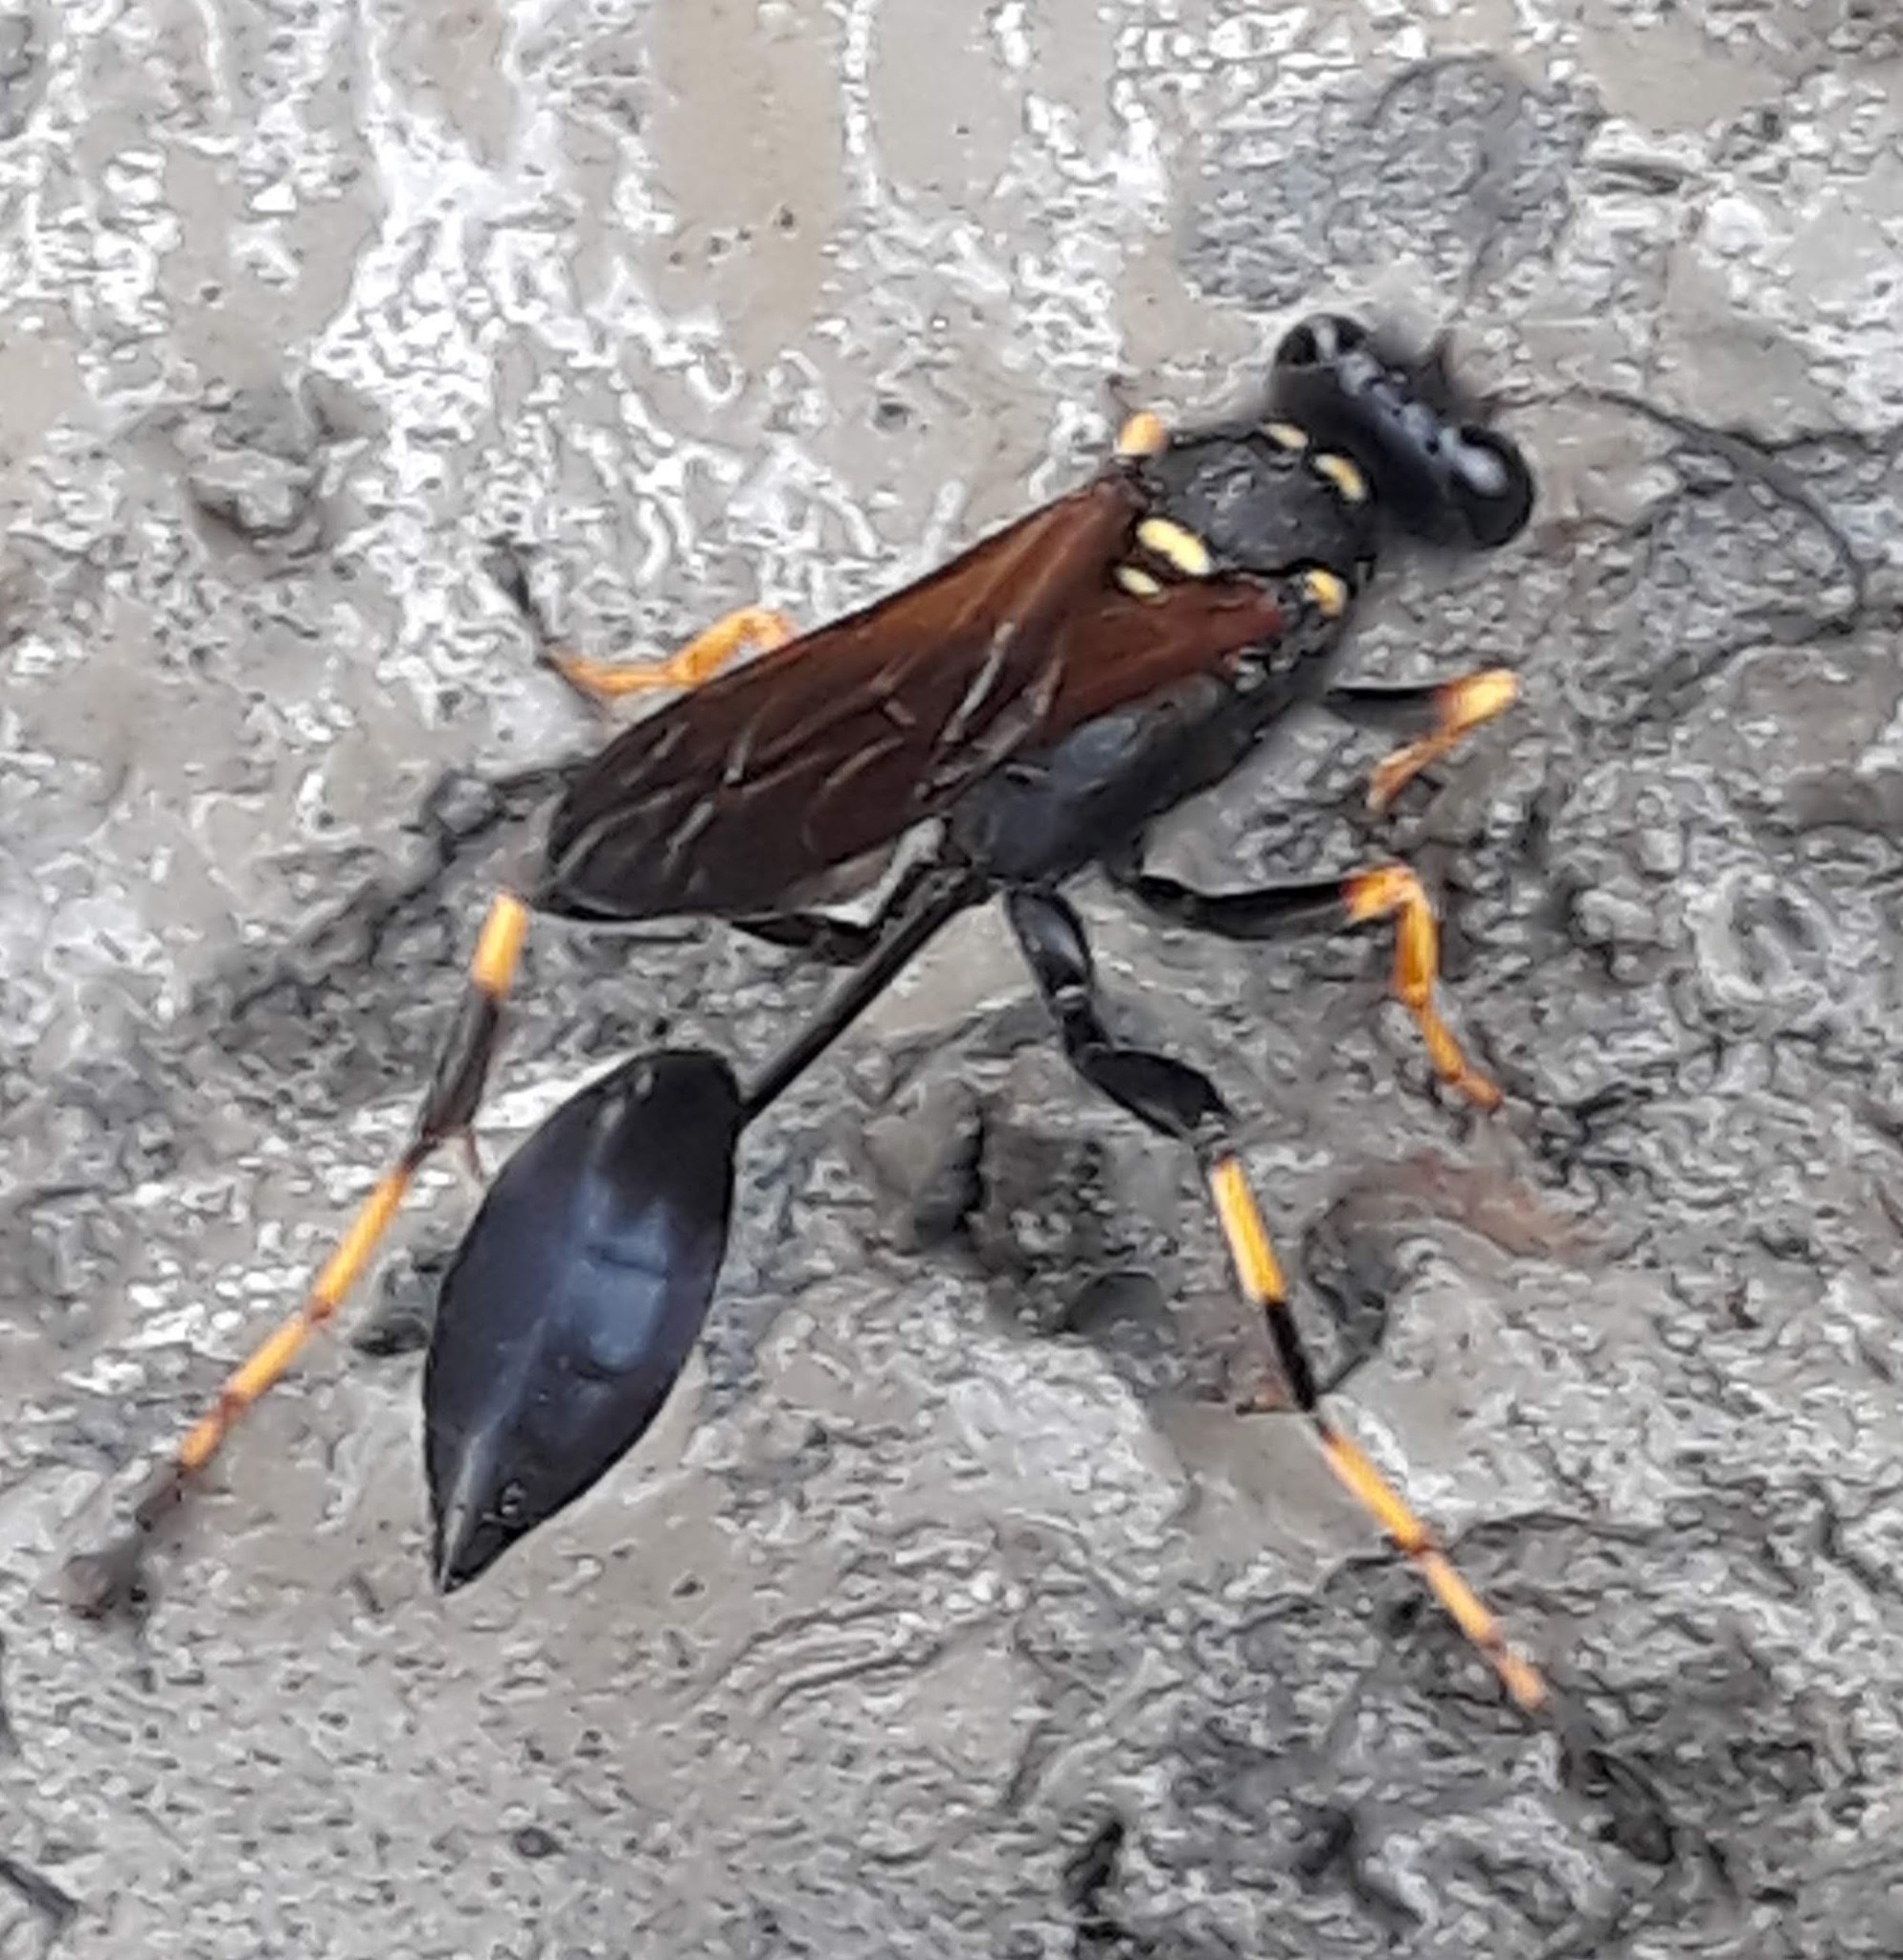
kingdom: Animalia
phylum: Arthropoda
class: Insecta
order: Hymenoptera
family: Sphecidae
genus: Sceliphron
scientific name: Sceliphron caementarium
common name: Mud dauber
